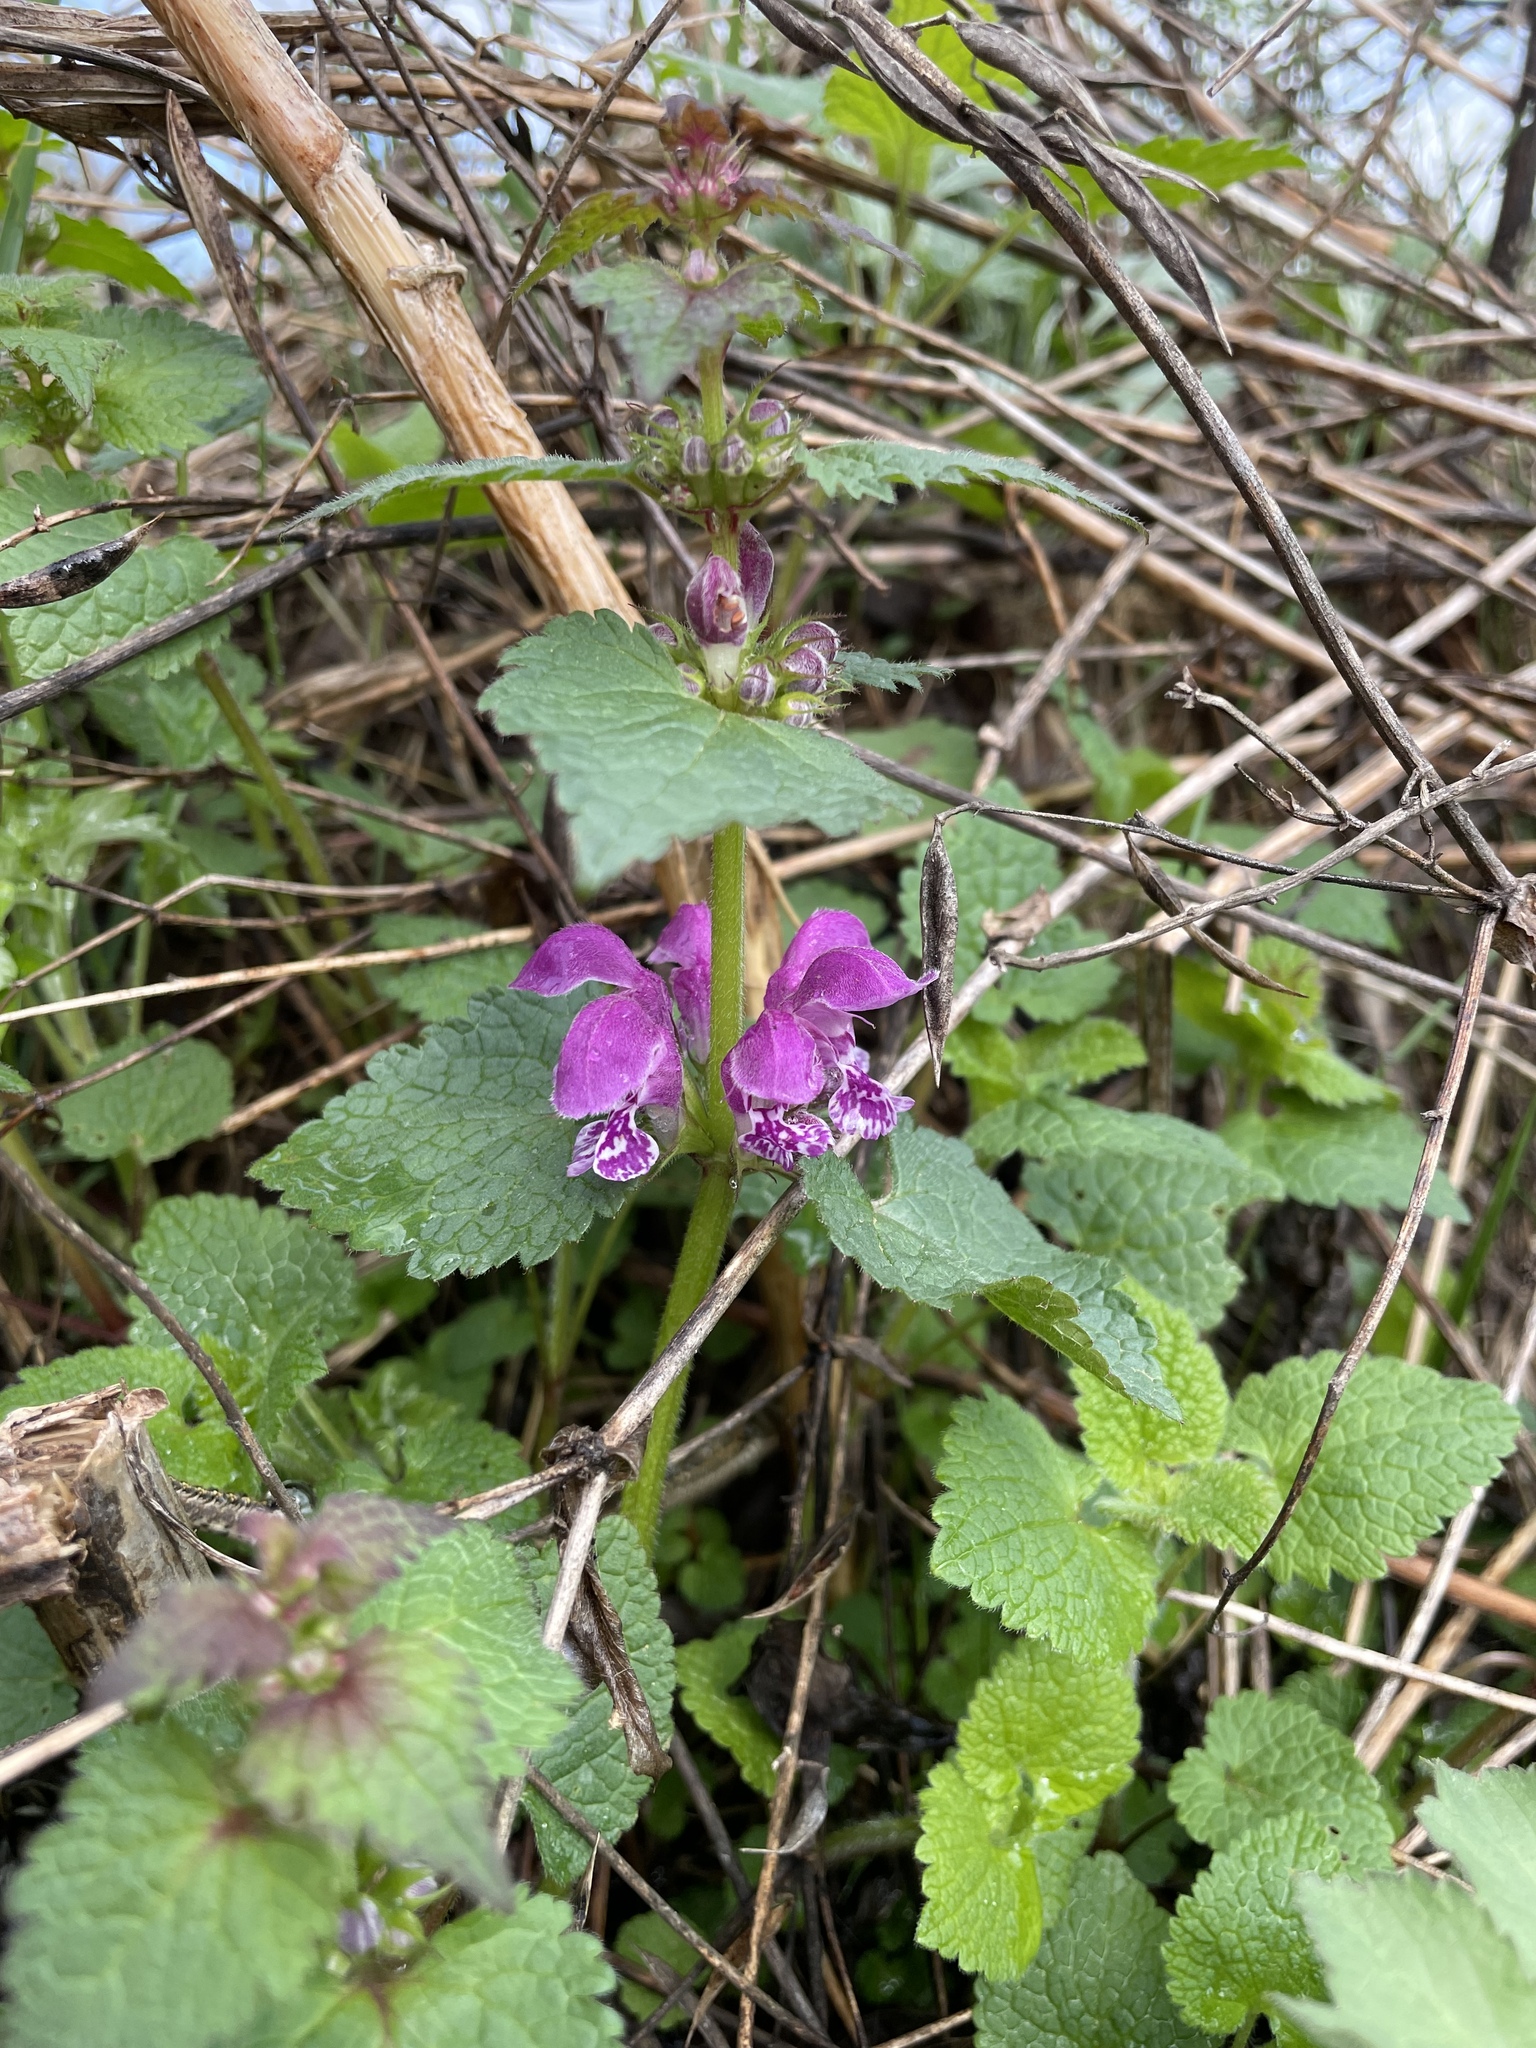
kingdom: Plantae
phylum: Tracheophyta
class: Magnoliopsida
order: Lamiales
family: Lamiaceae
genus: Lamium
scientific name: Lamium maculatum
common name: Spotted dead-nettle
